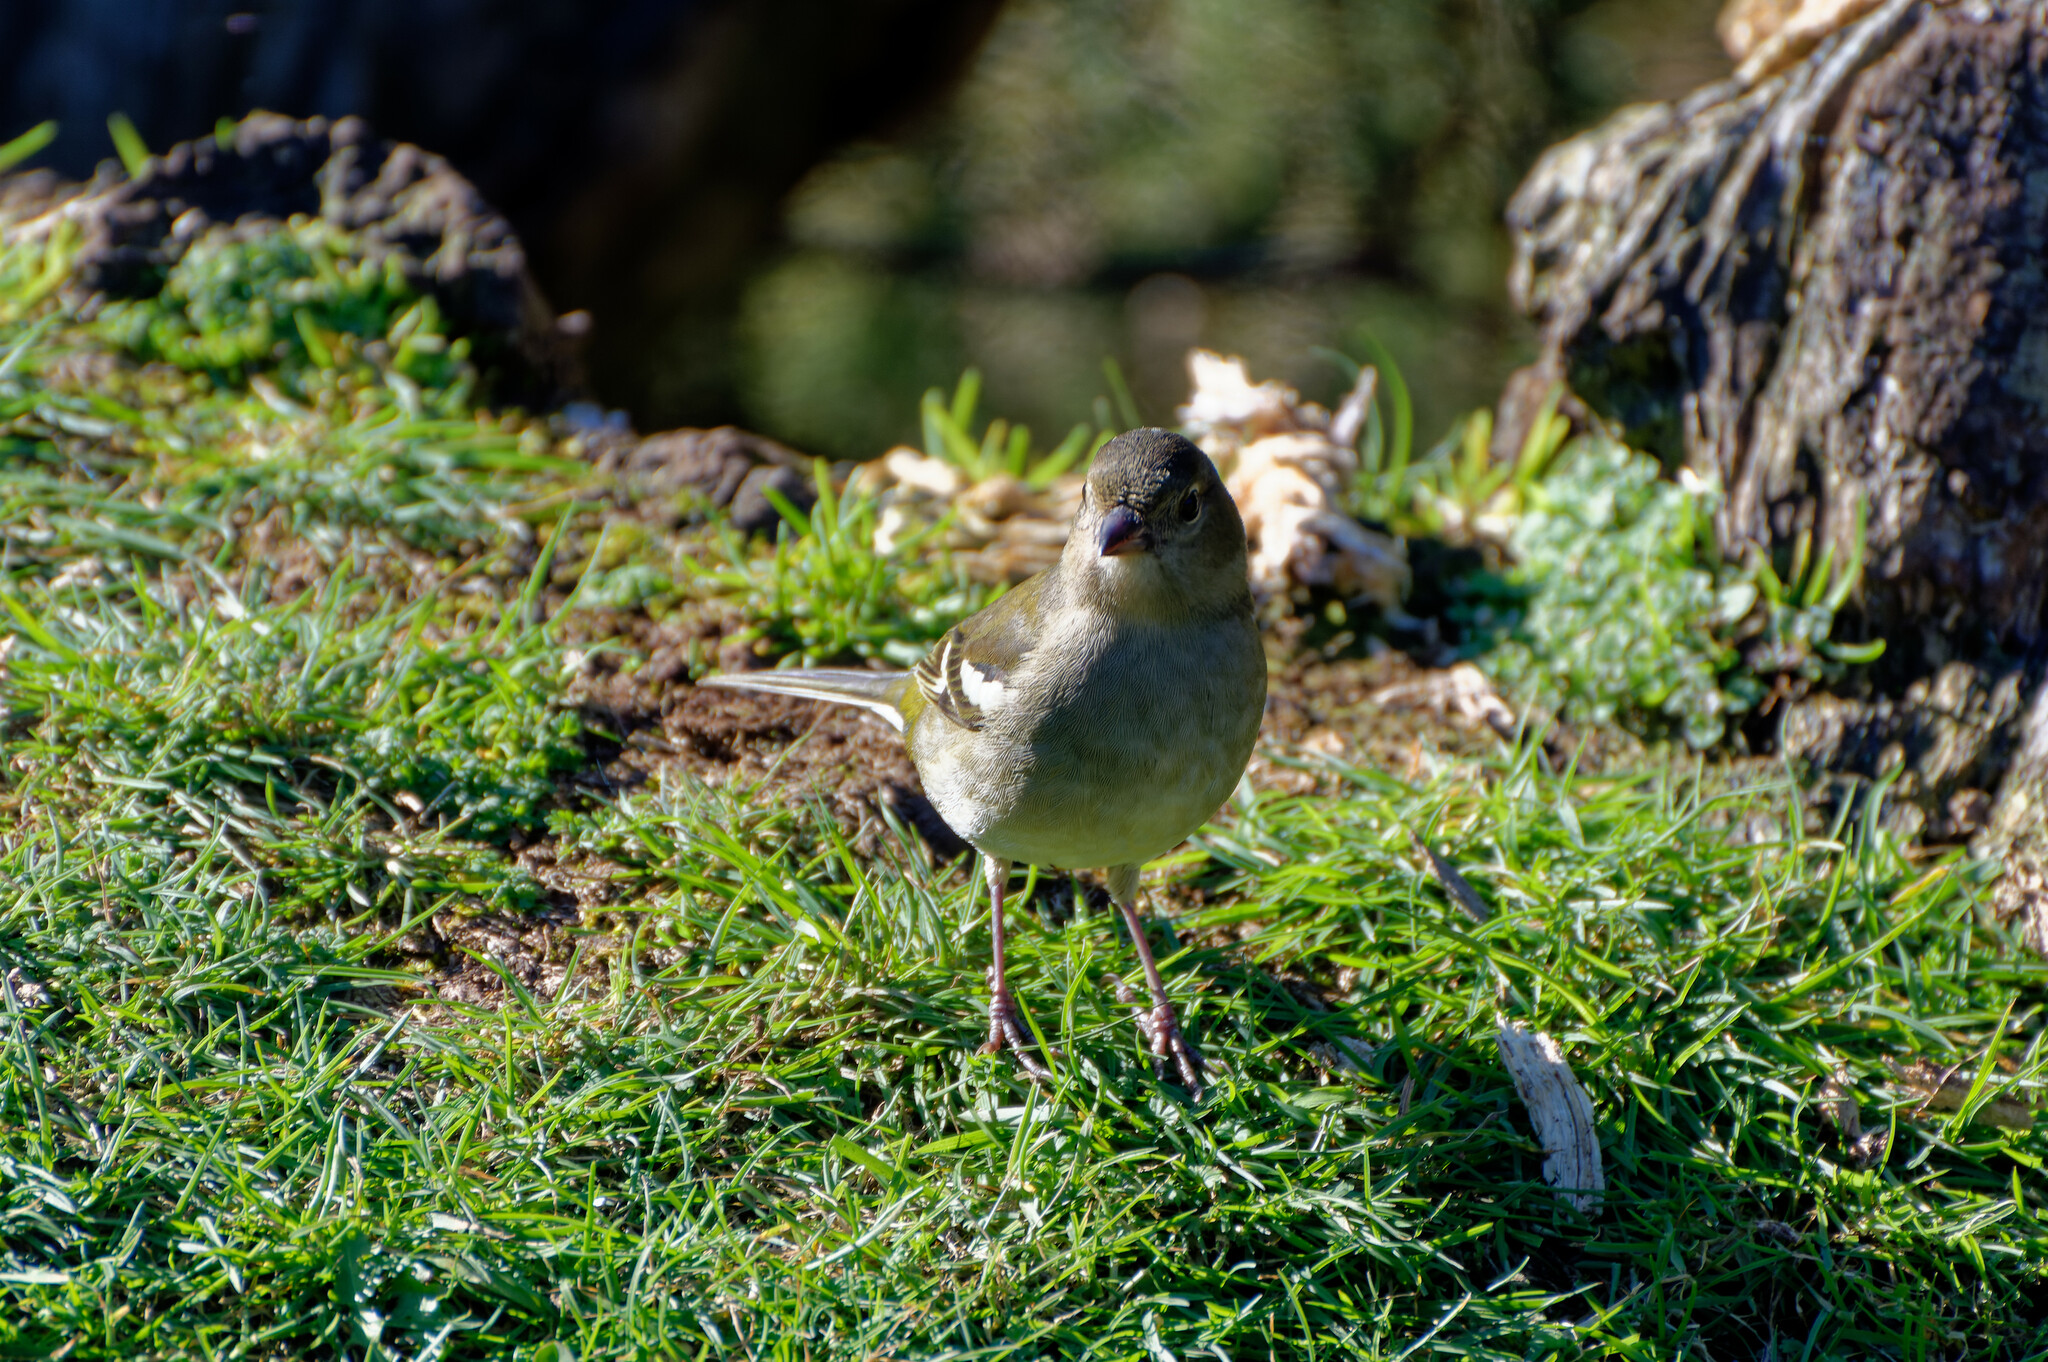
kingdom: Animalia
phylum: Chordata
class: Aves
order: Passeriformes
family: Fringillidae
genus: Fringilla
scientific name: Fringilla maderensis
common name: Madeira chaffinch
